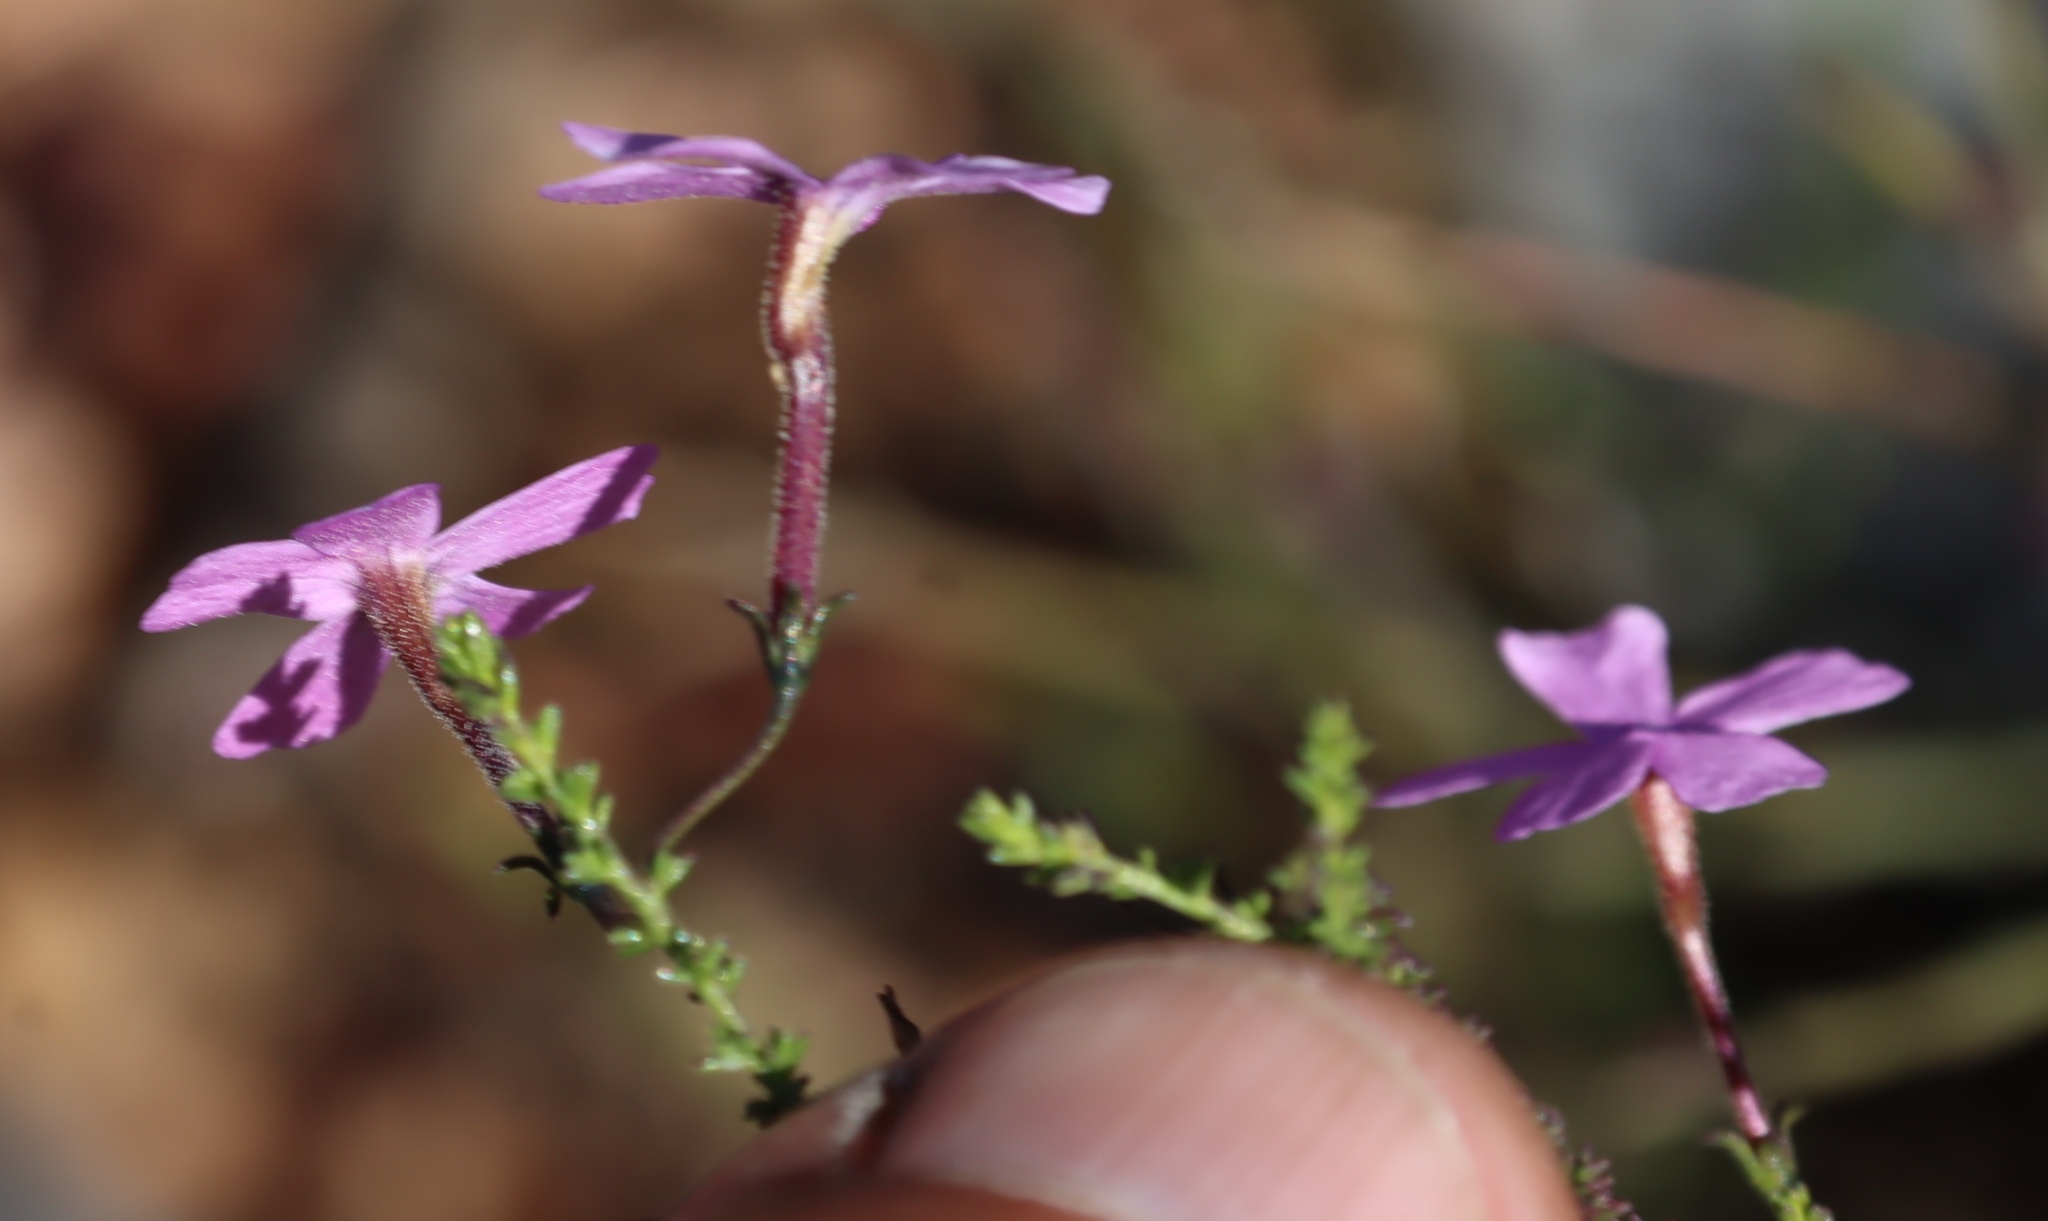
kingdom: Plantae
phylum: Tracheophyta
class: Magnoliopsida
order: Lamiales
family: Scrophulariaceae
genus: Jamesbrittenia
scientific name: Jamesbrittenia aspalathoides
